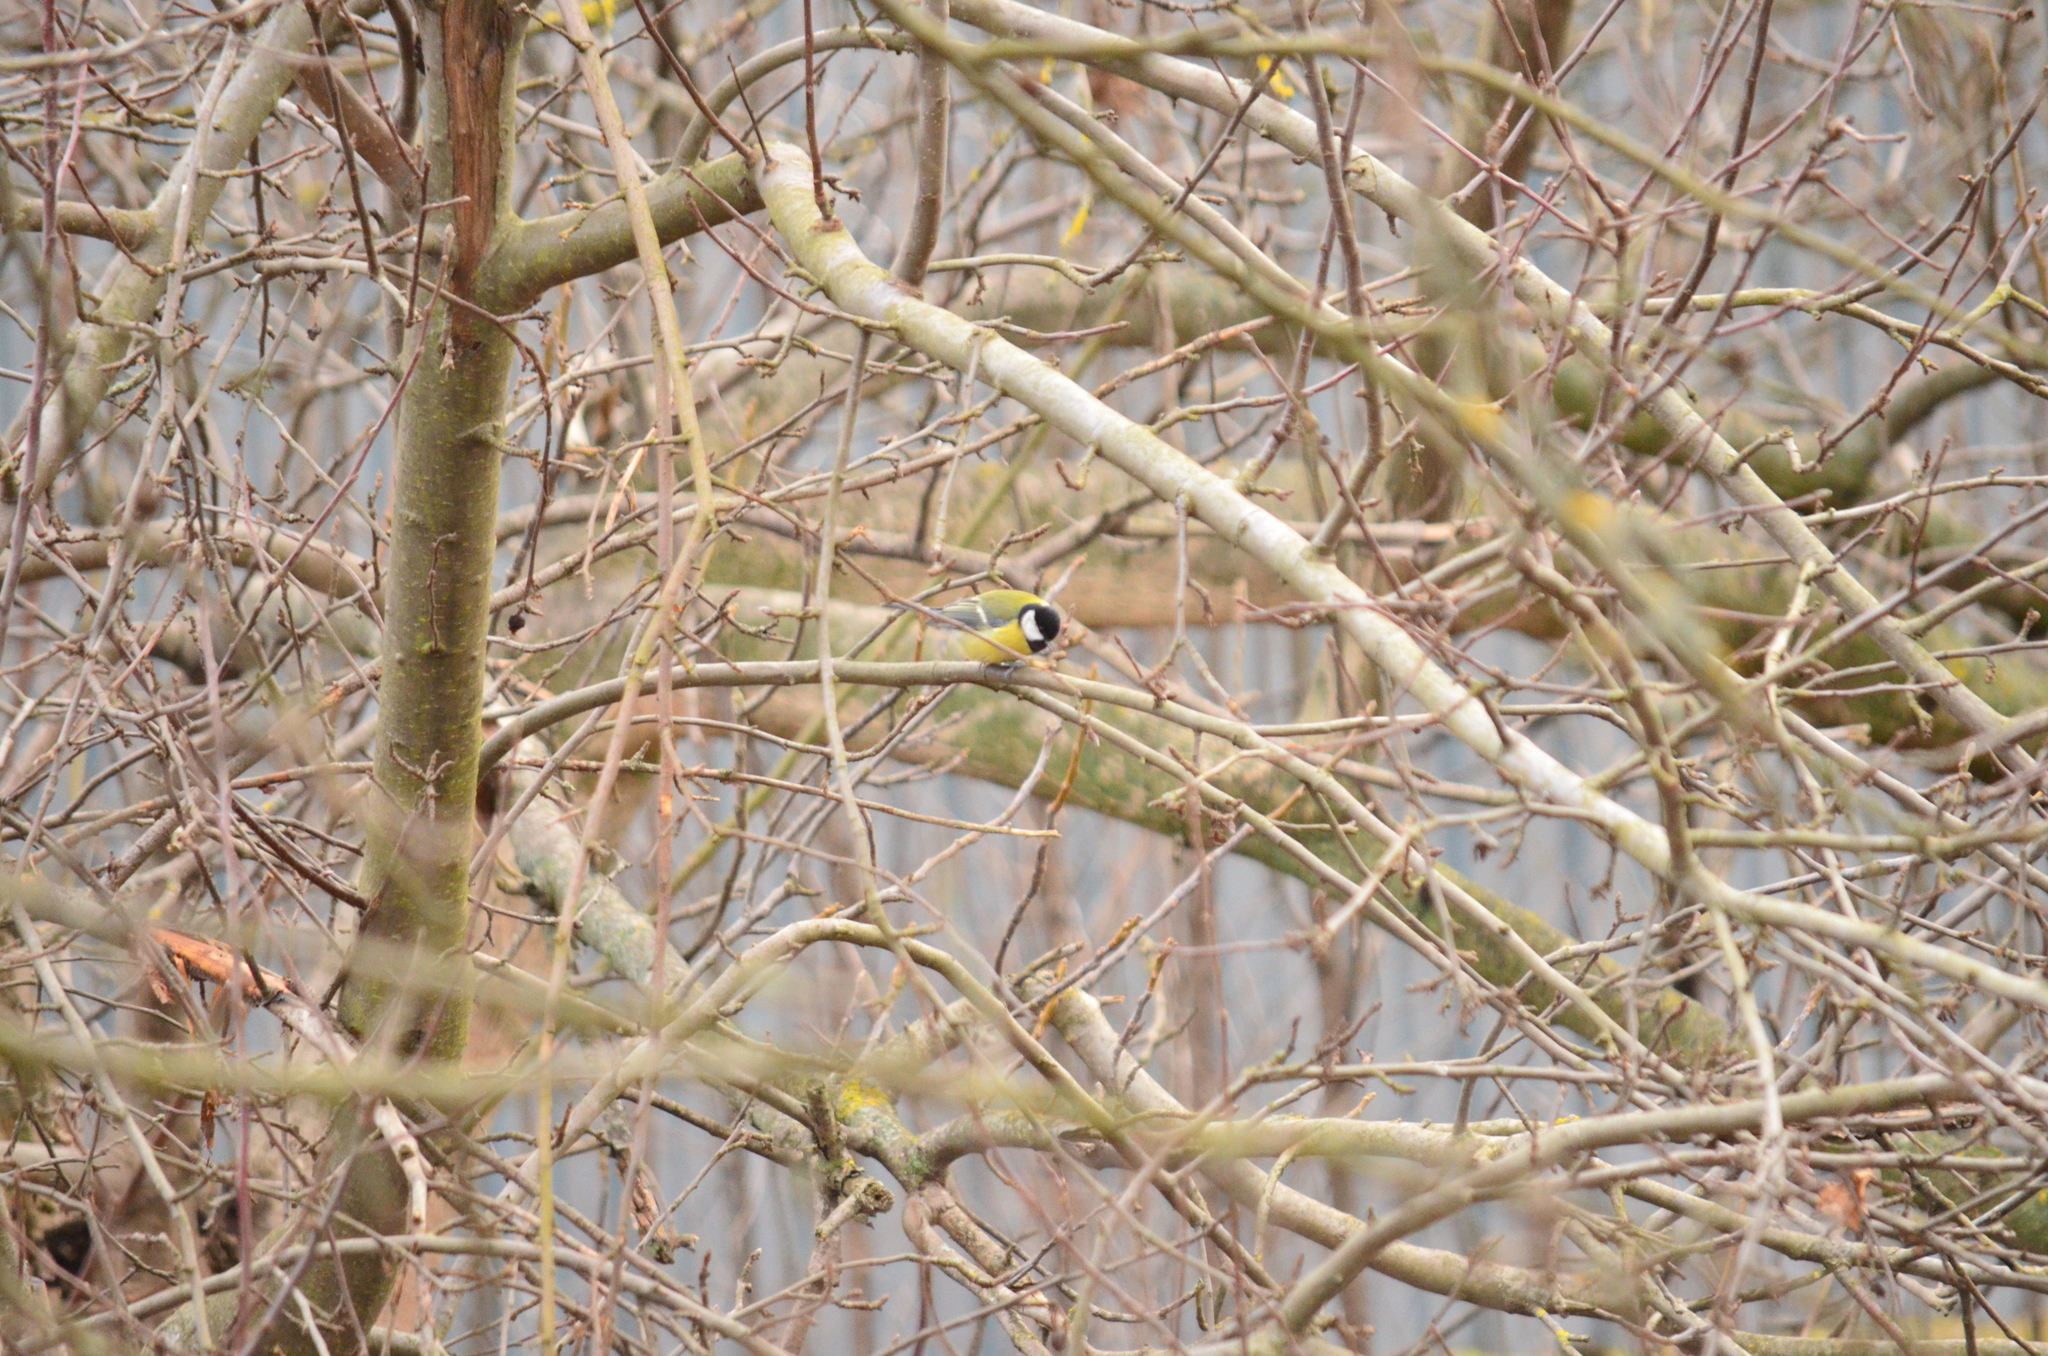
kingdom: Animalia
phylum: Chordata
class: Aves
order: Passeriformes
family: Paridae
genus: Parus
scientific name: Parus major
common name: Great tit
